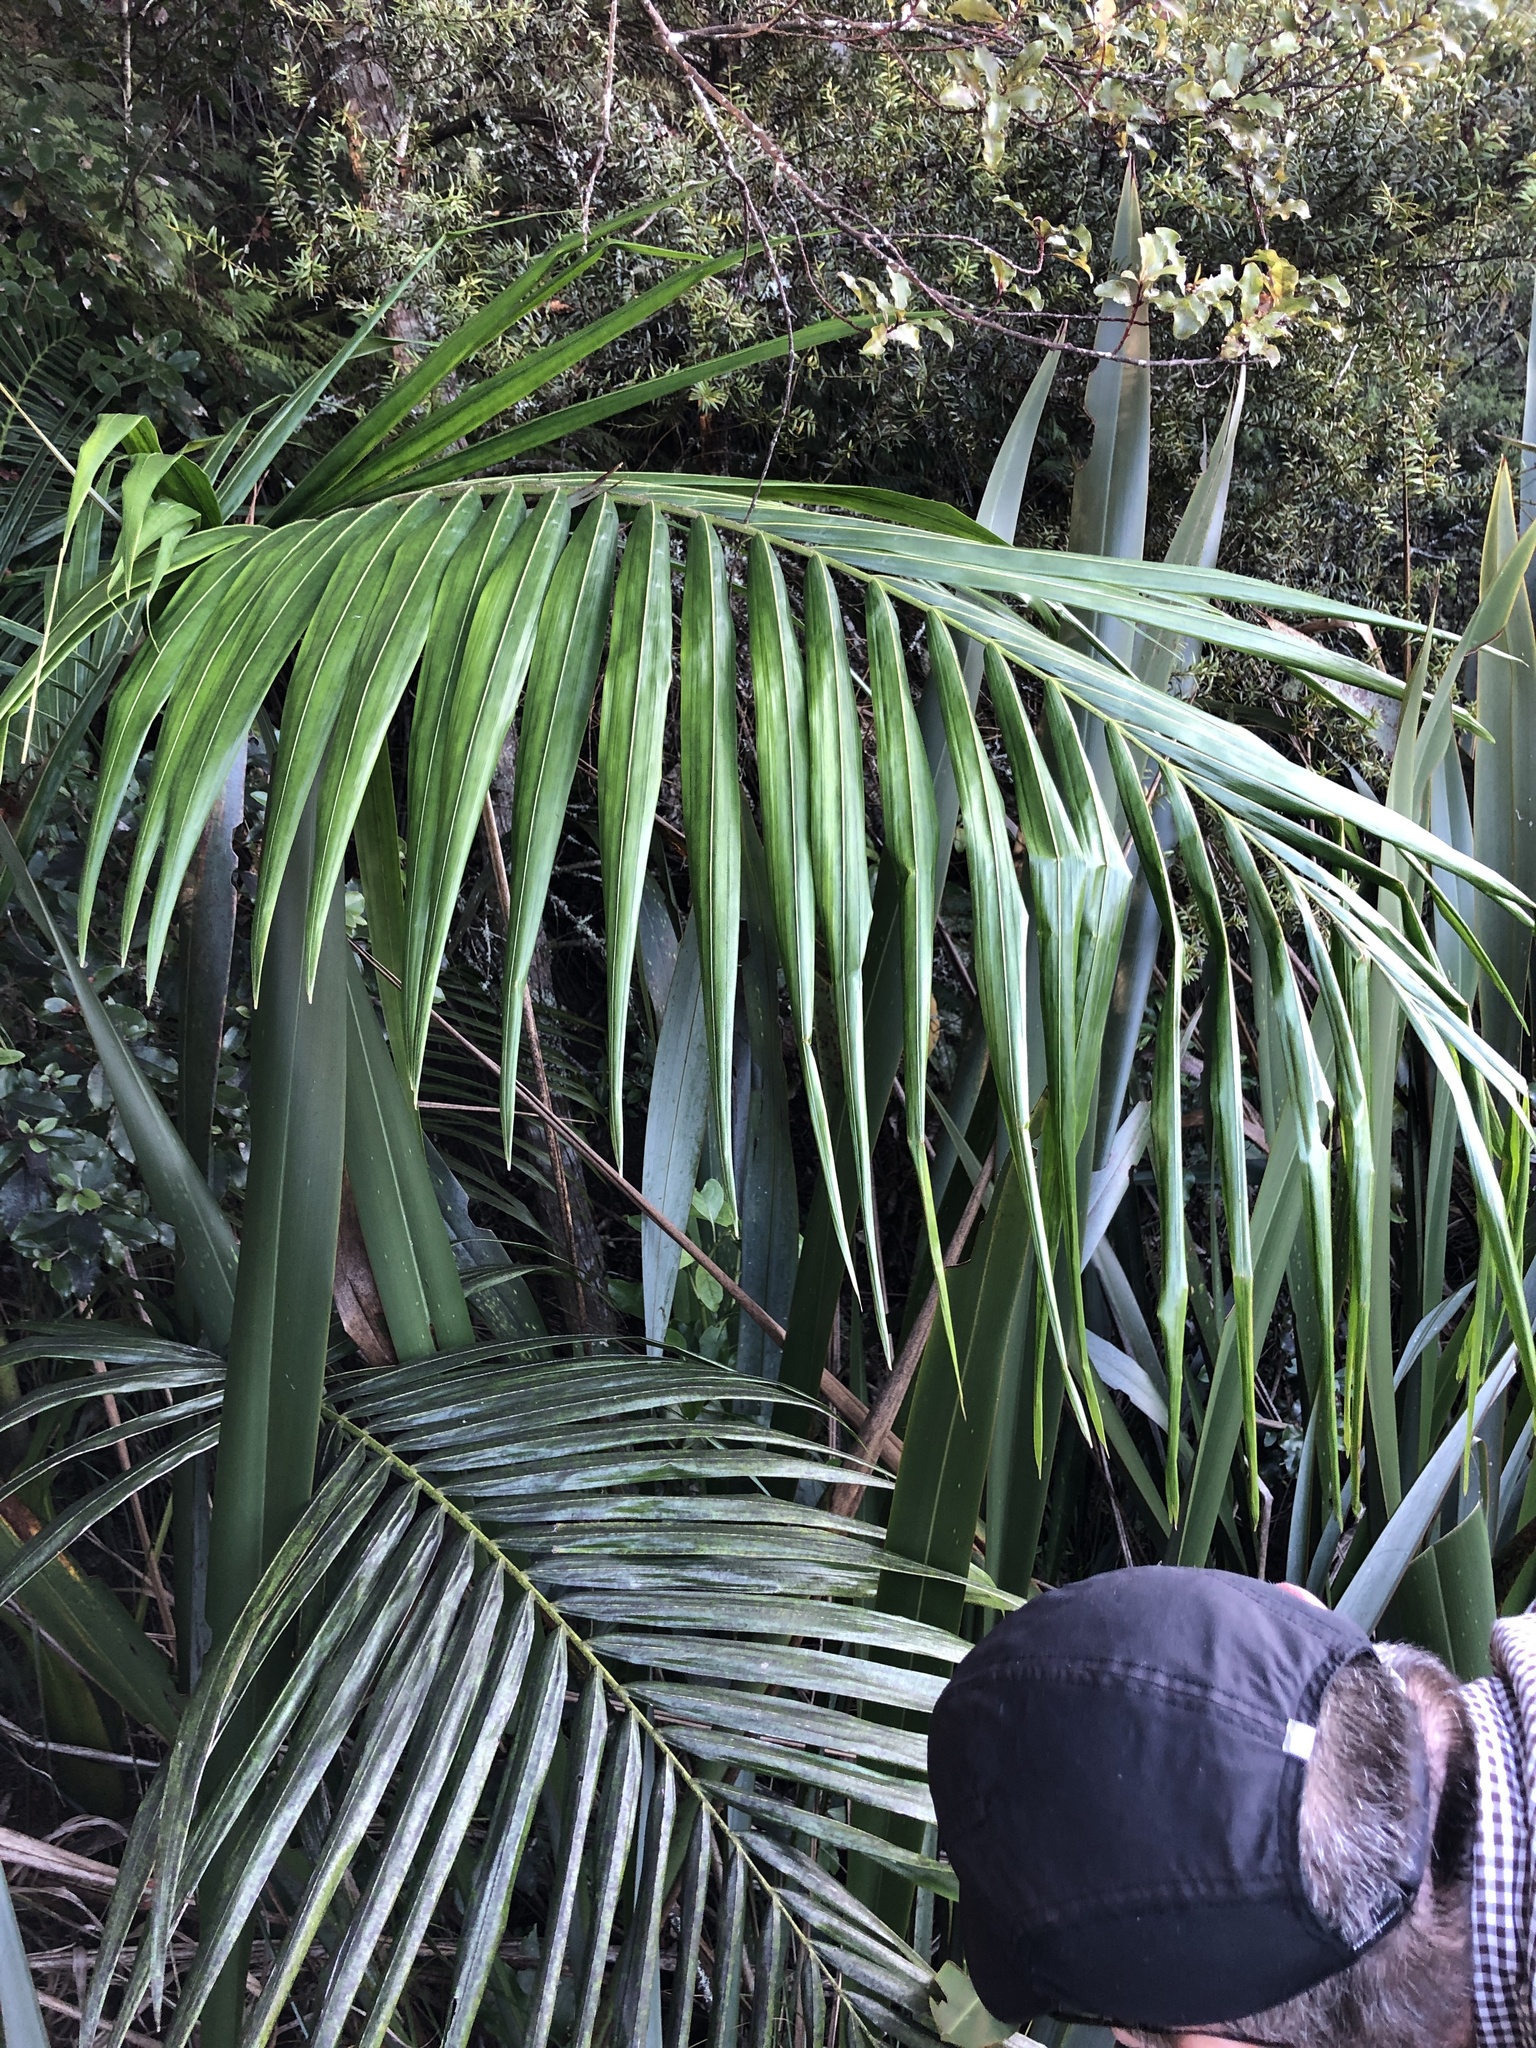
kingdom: Plantae
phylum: Tracheophyta
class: Liliopsida
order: Arecales
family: Arecaceae
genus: Archontophoenix
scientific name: Archontophoenix cunninghamiana
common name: Piccabeen bangalow palm
